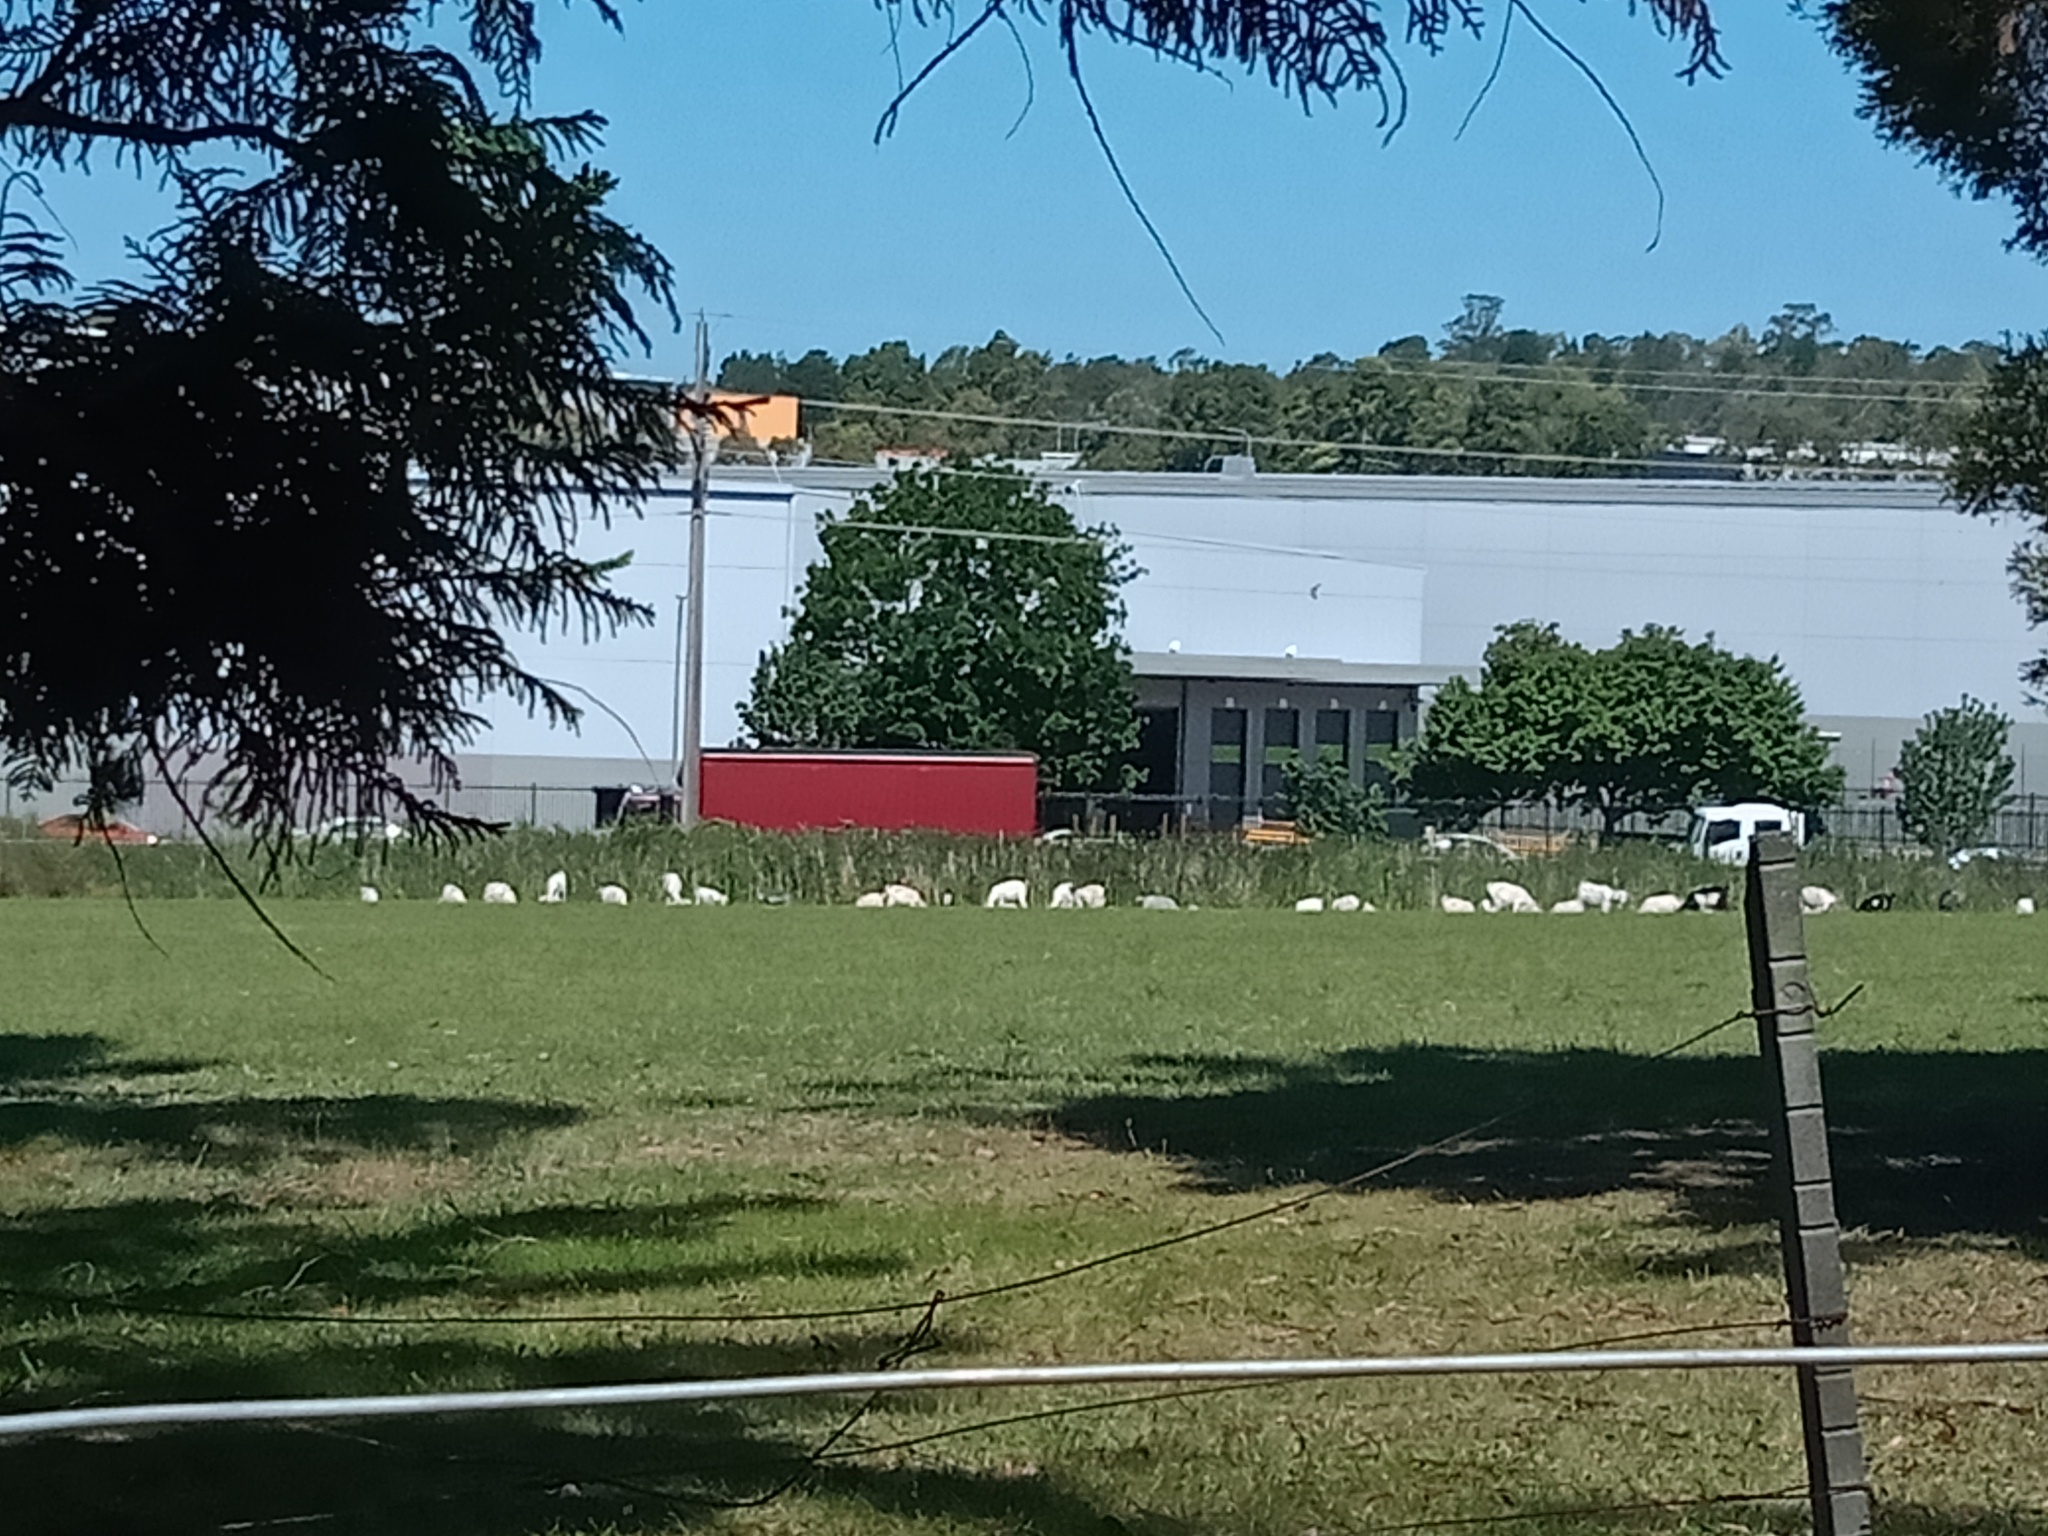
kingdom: Animalia
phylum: Chordata
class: Mammalia
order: Artiodactyla
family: Bovidae
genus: Capra
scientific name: Capra hircus
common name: Domestic goat
